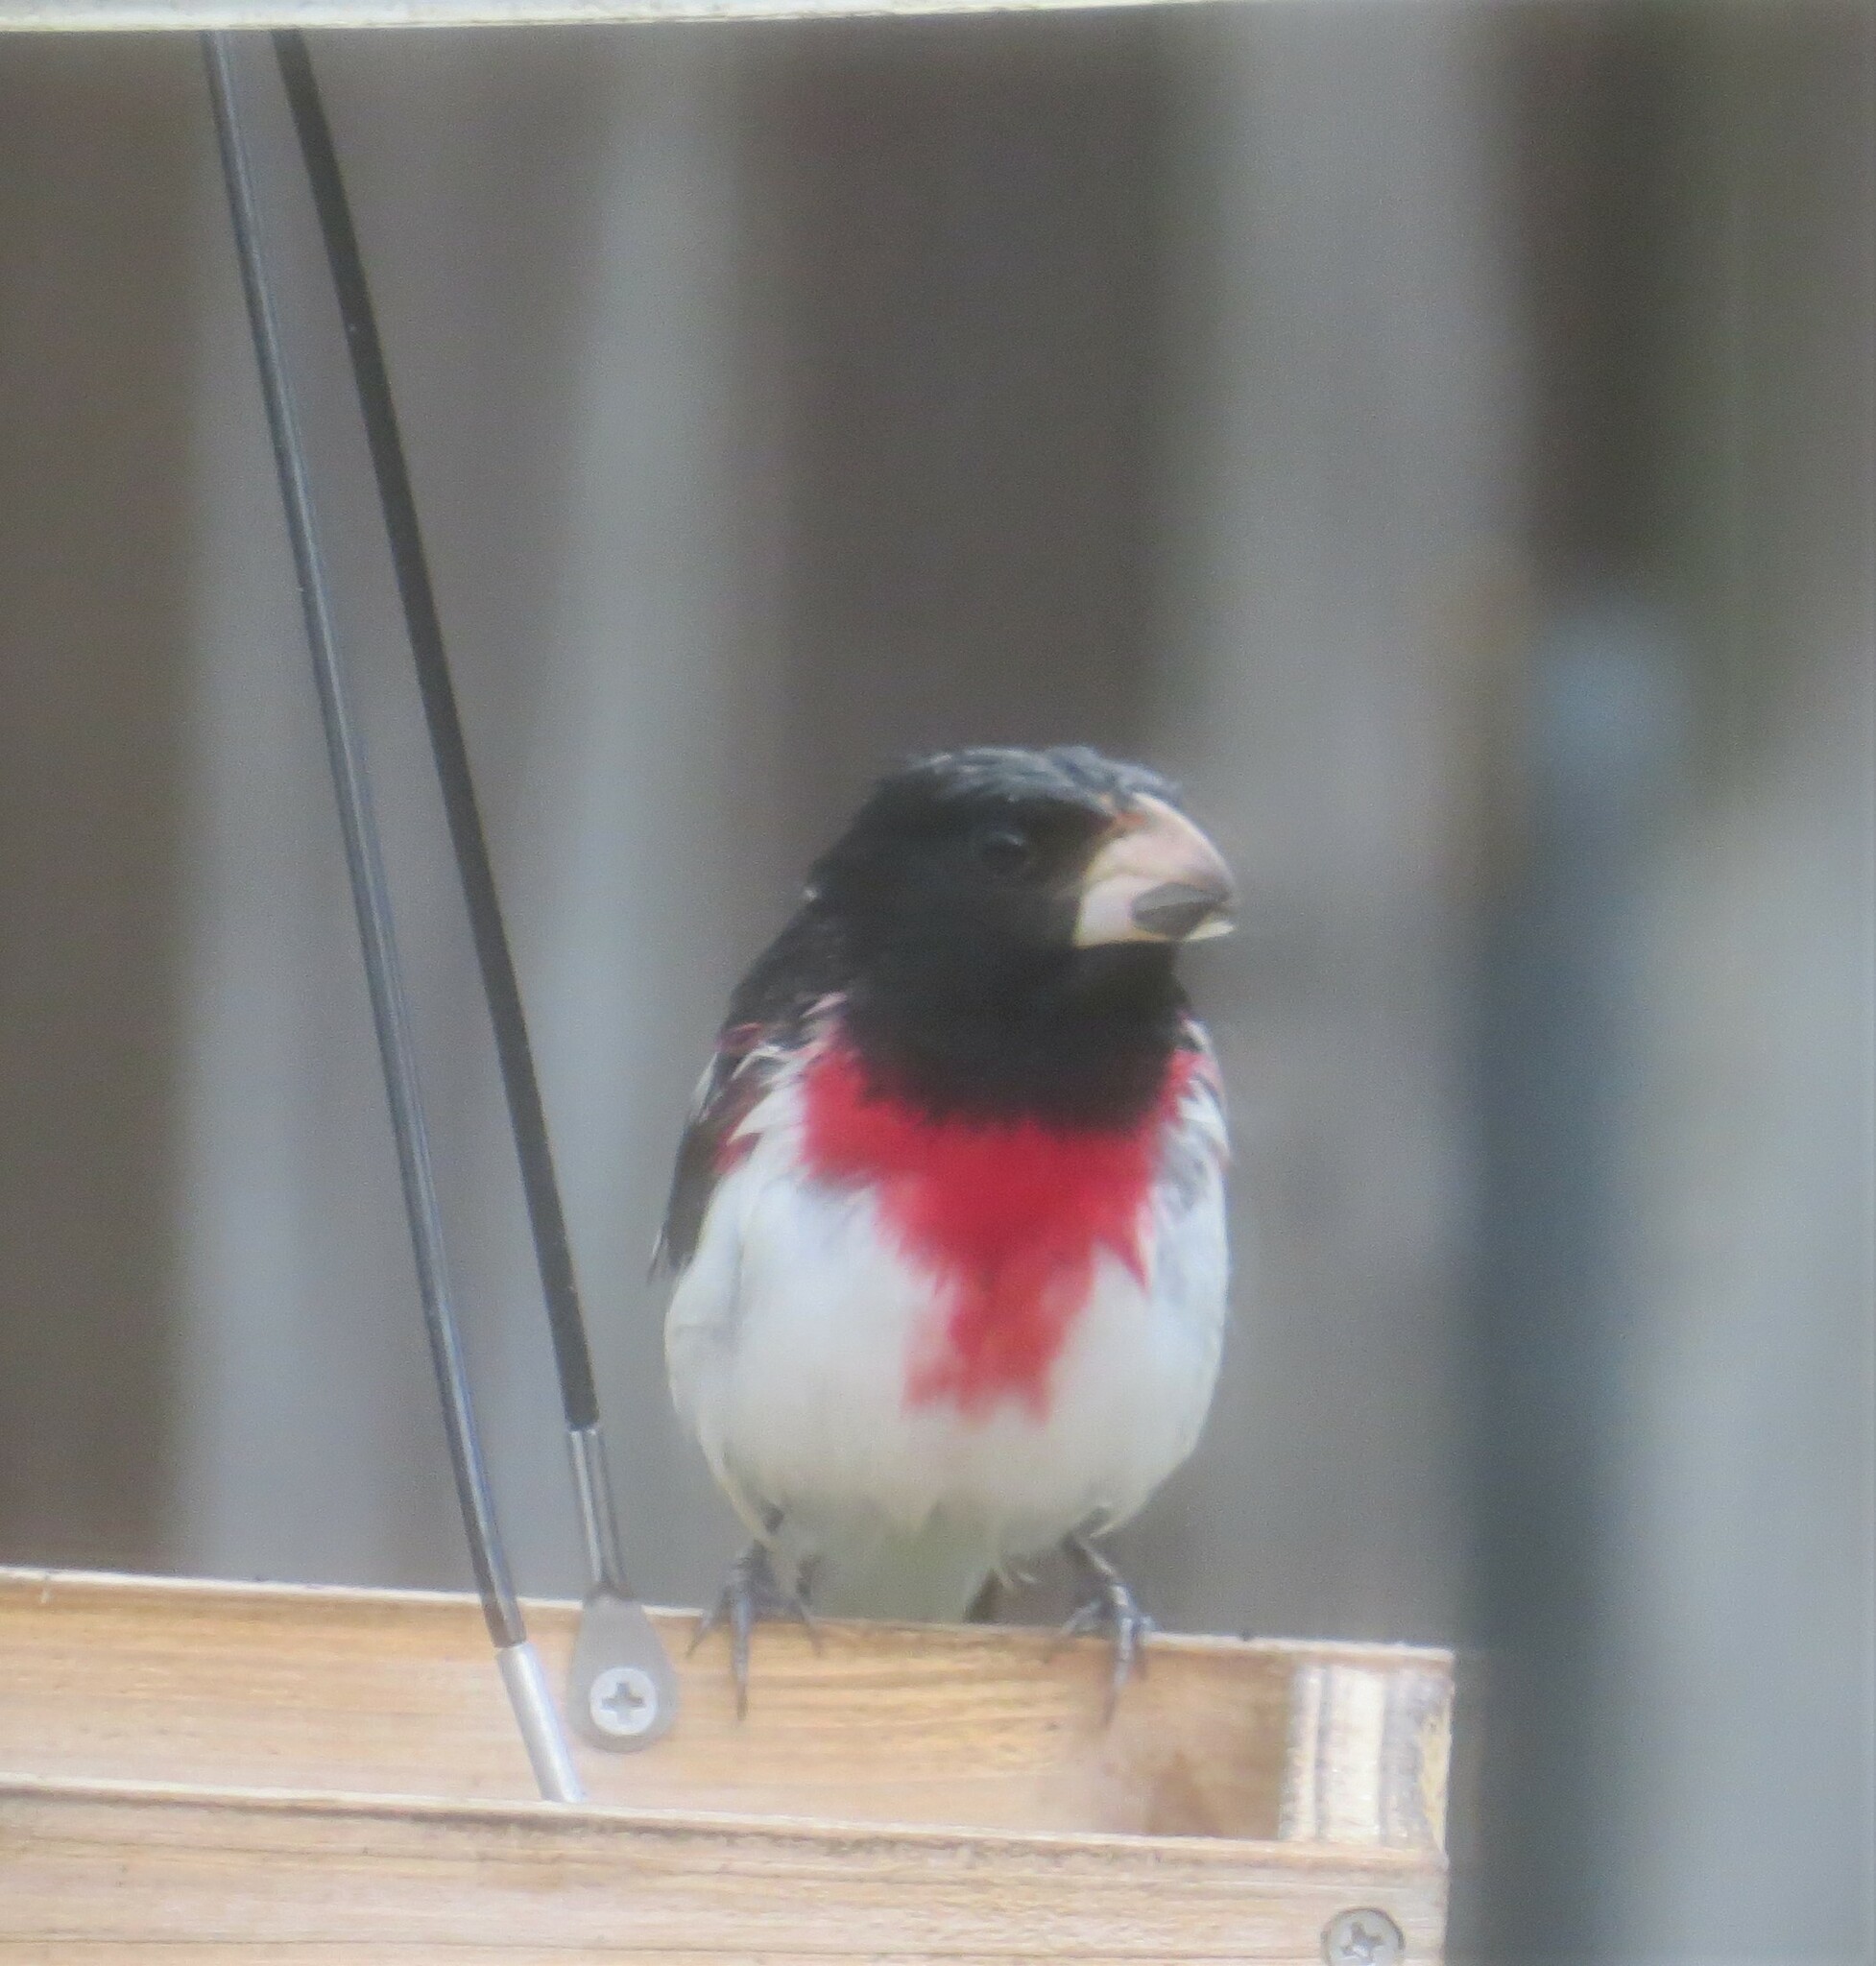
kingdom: Animalia
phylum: Chordata
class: Aves
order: Passeriformes
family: Cardinalidae
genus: Pheucticus
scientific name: Pheucticus ludovicianus
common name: Rose-breasted grosbeak
